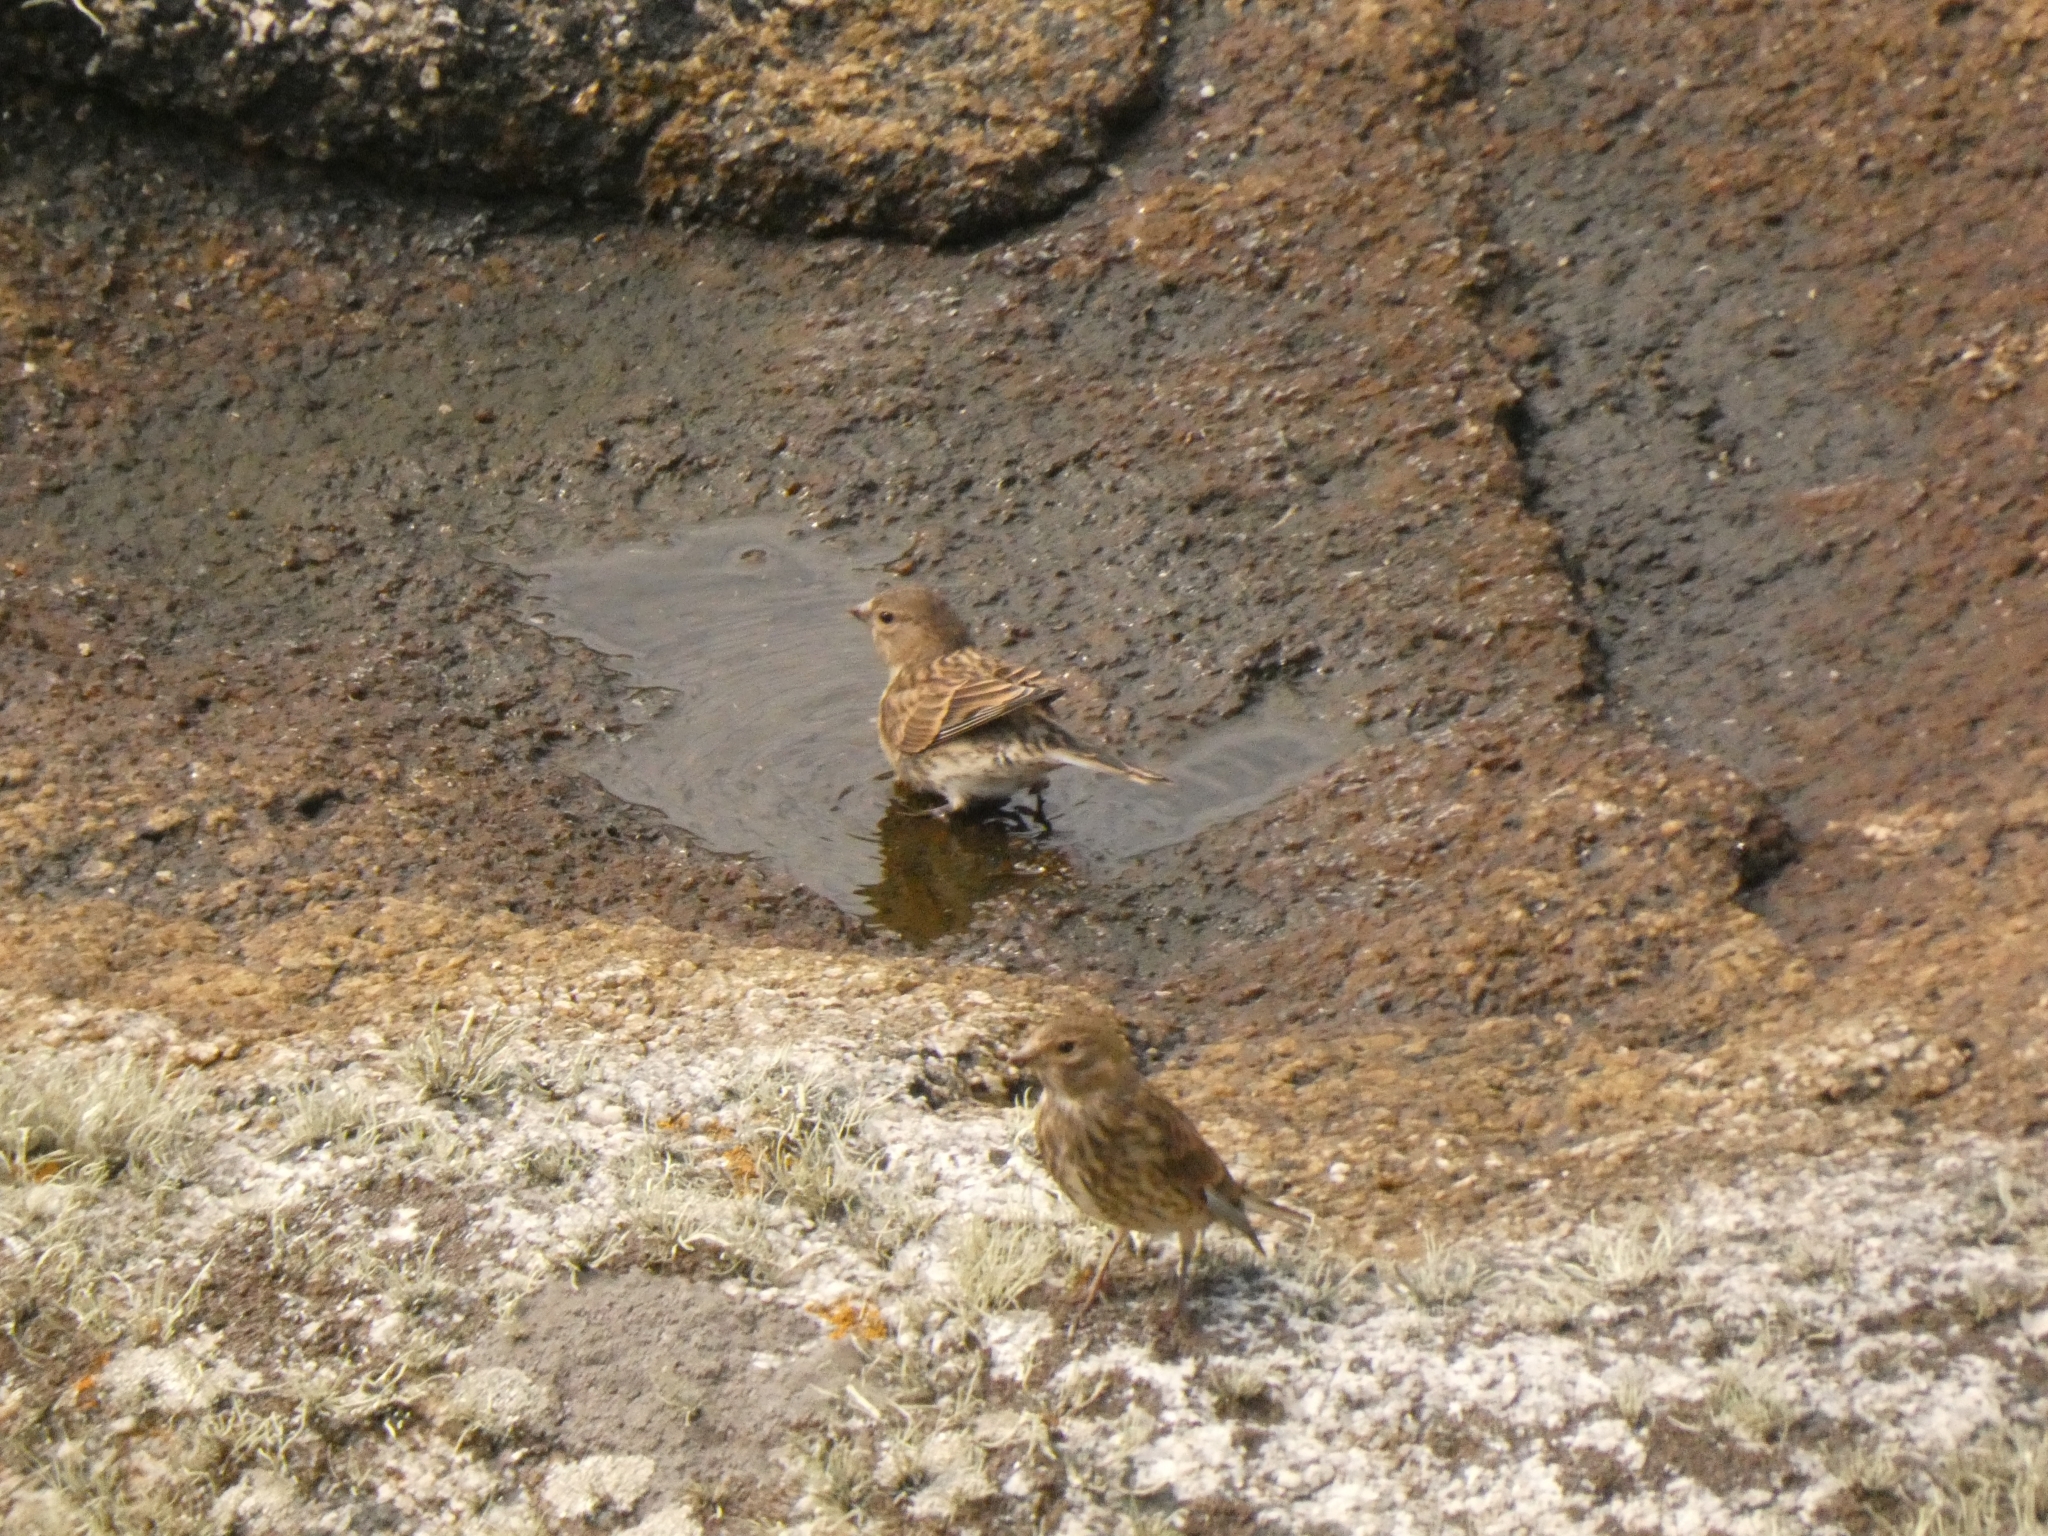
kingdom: Animalia
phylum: Chordata
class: Aves
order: Passeriformes
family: Fringillidae
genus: Linaria
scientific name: Linaria cannabina
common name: Common linnet
